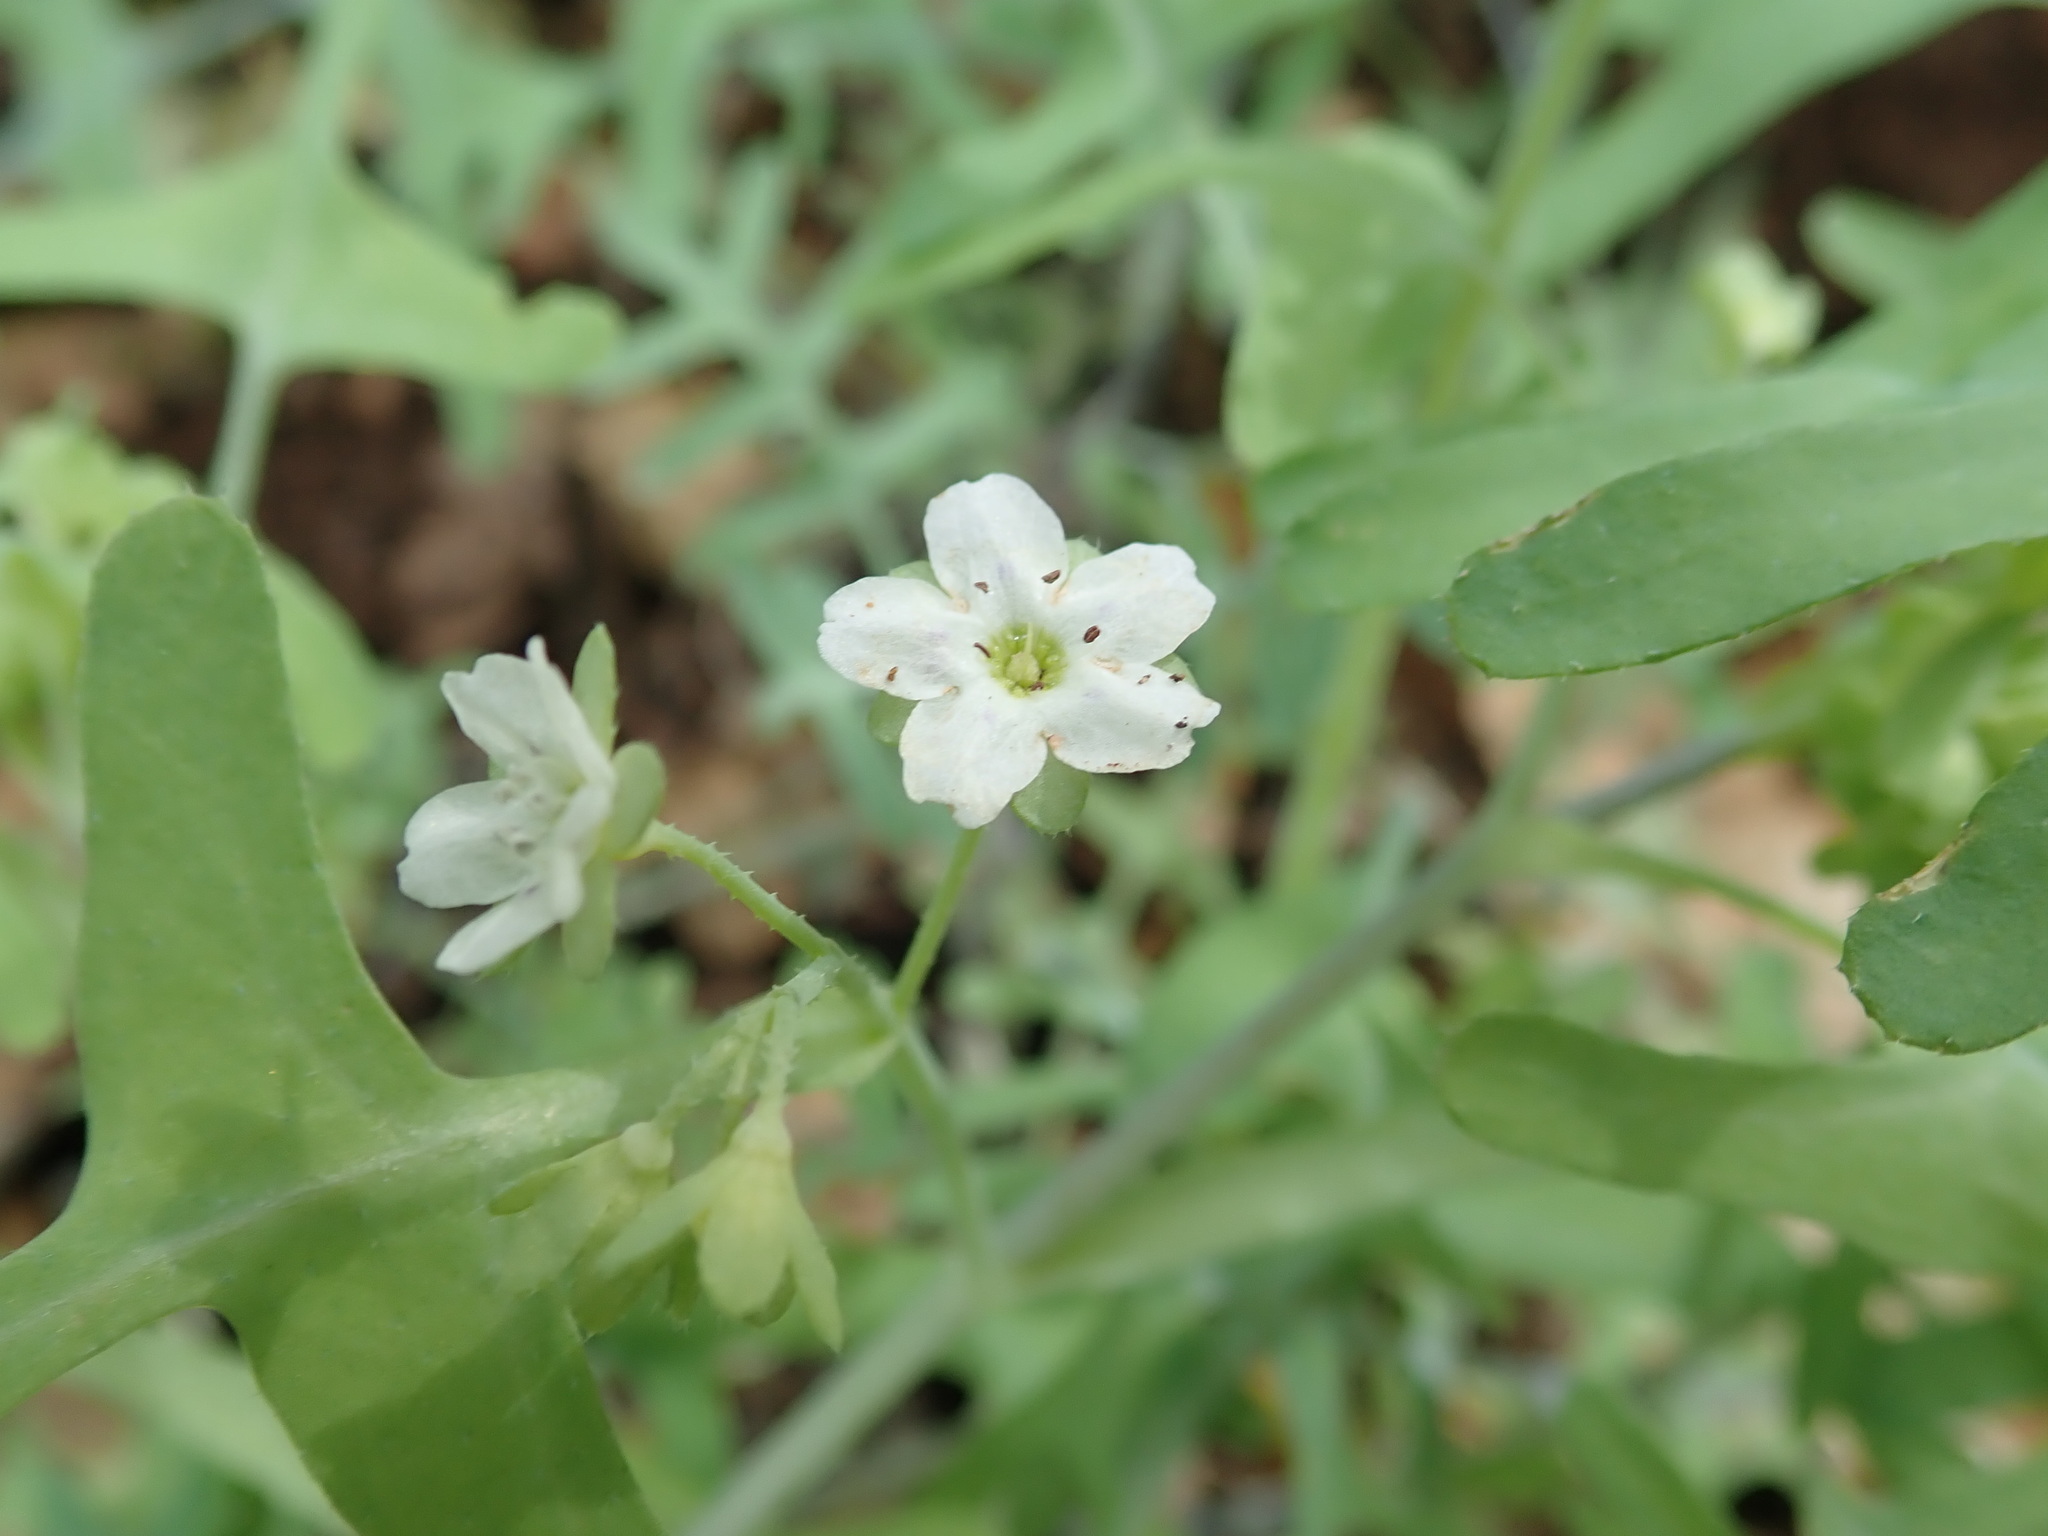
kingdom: Plantae
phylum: Tracheophyta
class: Magnoliopsida
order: Boraginales
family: Hydrophyllaceae
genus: Pholistoma
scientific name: Pholistoma membranaceum
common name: White fiesta-flower
